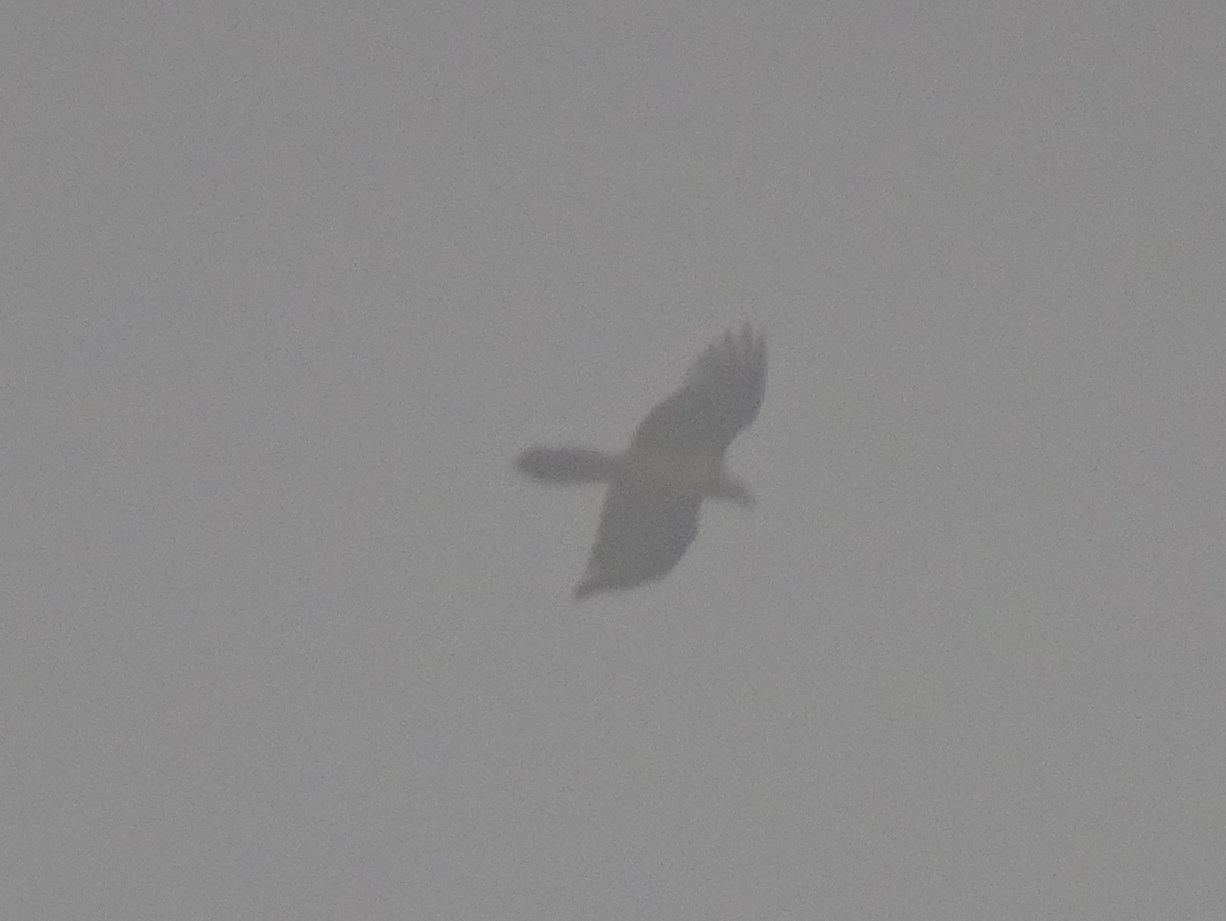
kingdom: Animalia
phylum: Chordata
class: Aves
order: Accipitriformes
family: Accipitridae
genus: Gypaetus
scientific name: Gypaetus barbatus
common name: Bearded vulture
